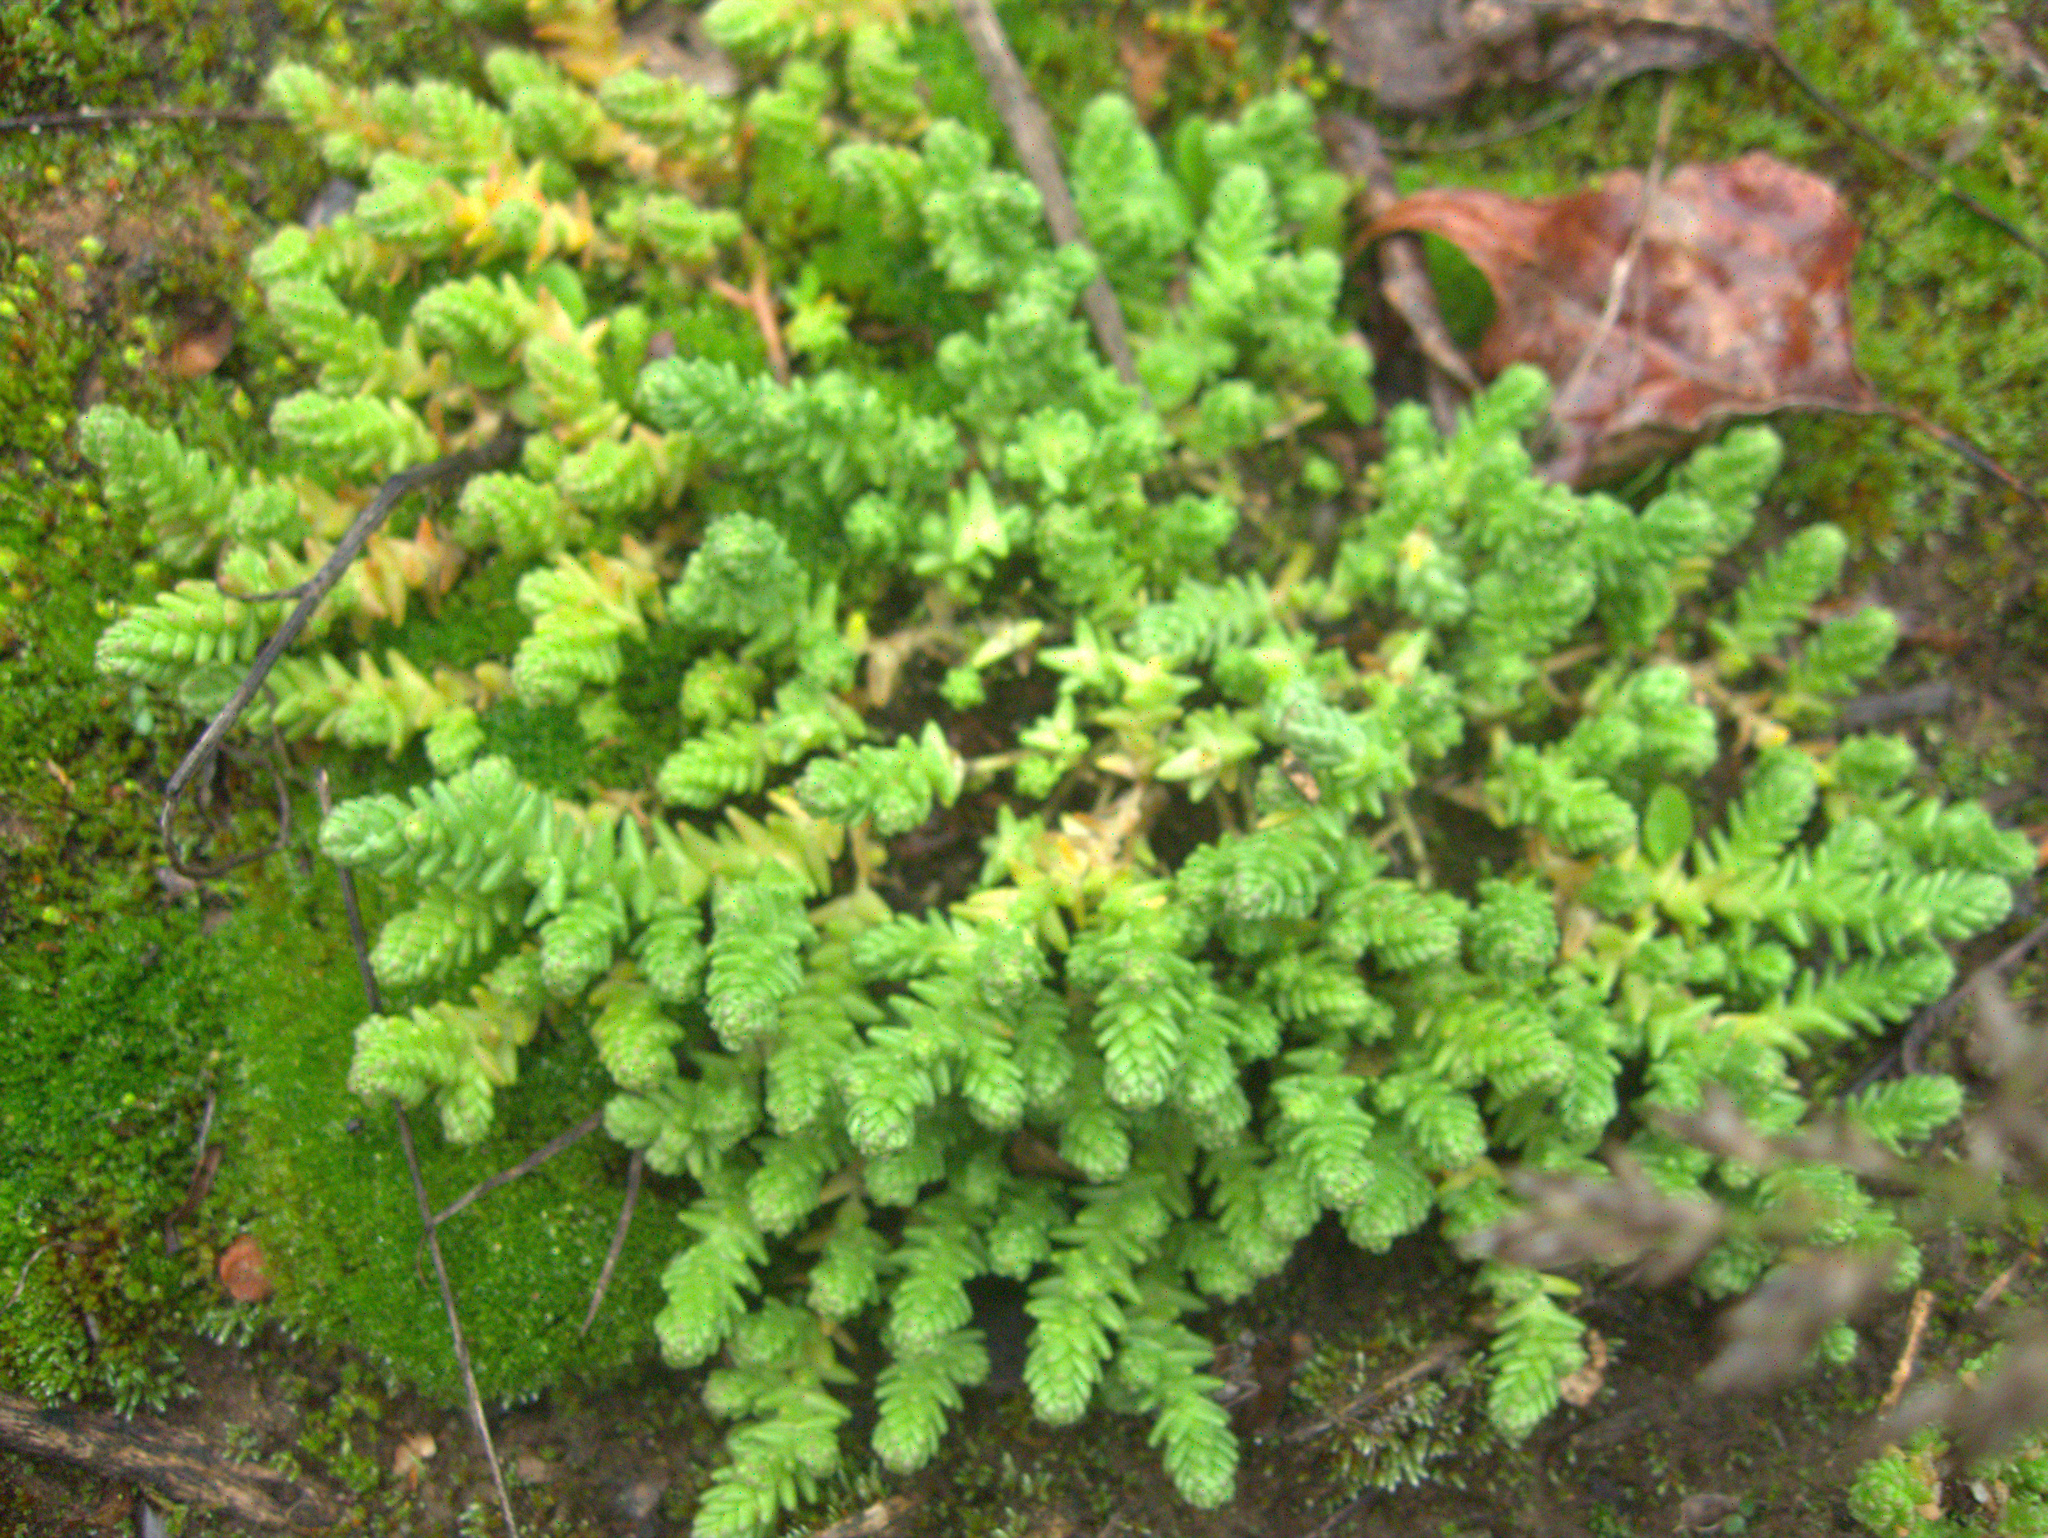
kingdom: Plantae
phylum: Tracheophyta
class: Magnoliopsida
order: Saxifragales
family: Crassulaceae
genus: Sedum
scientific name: Sedum acre
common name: Biting stonecrop
